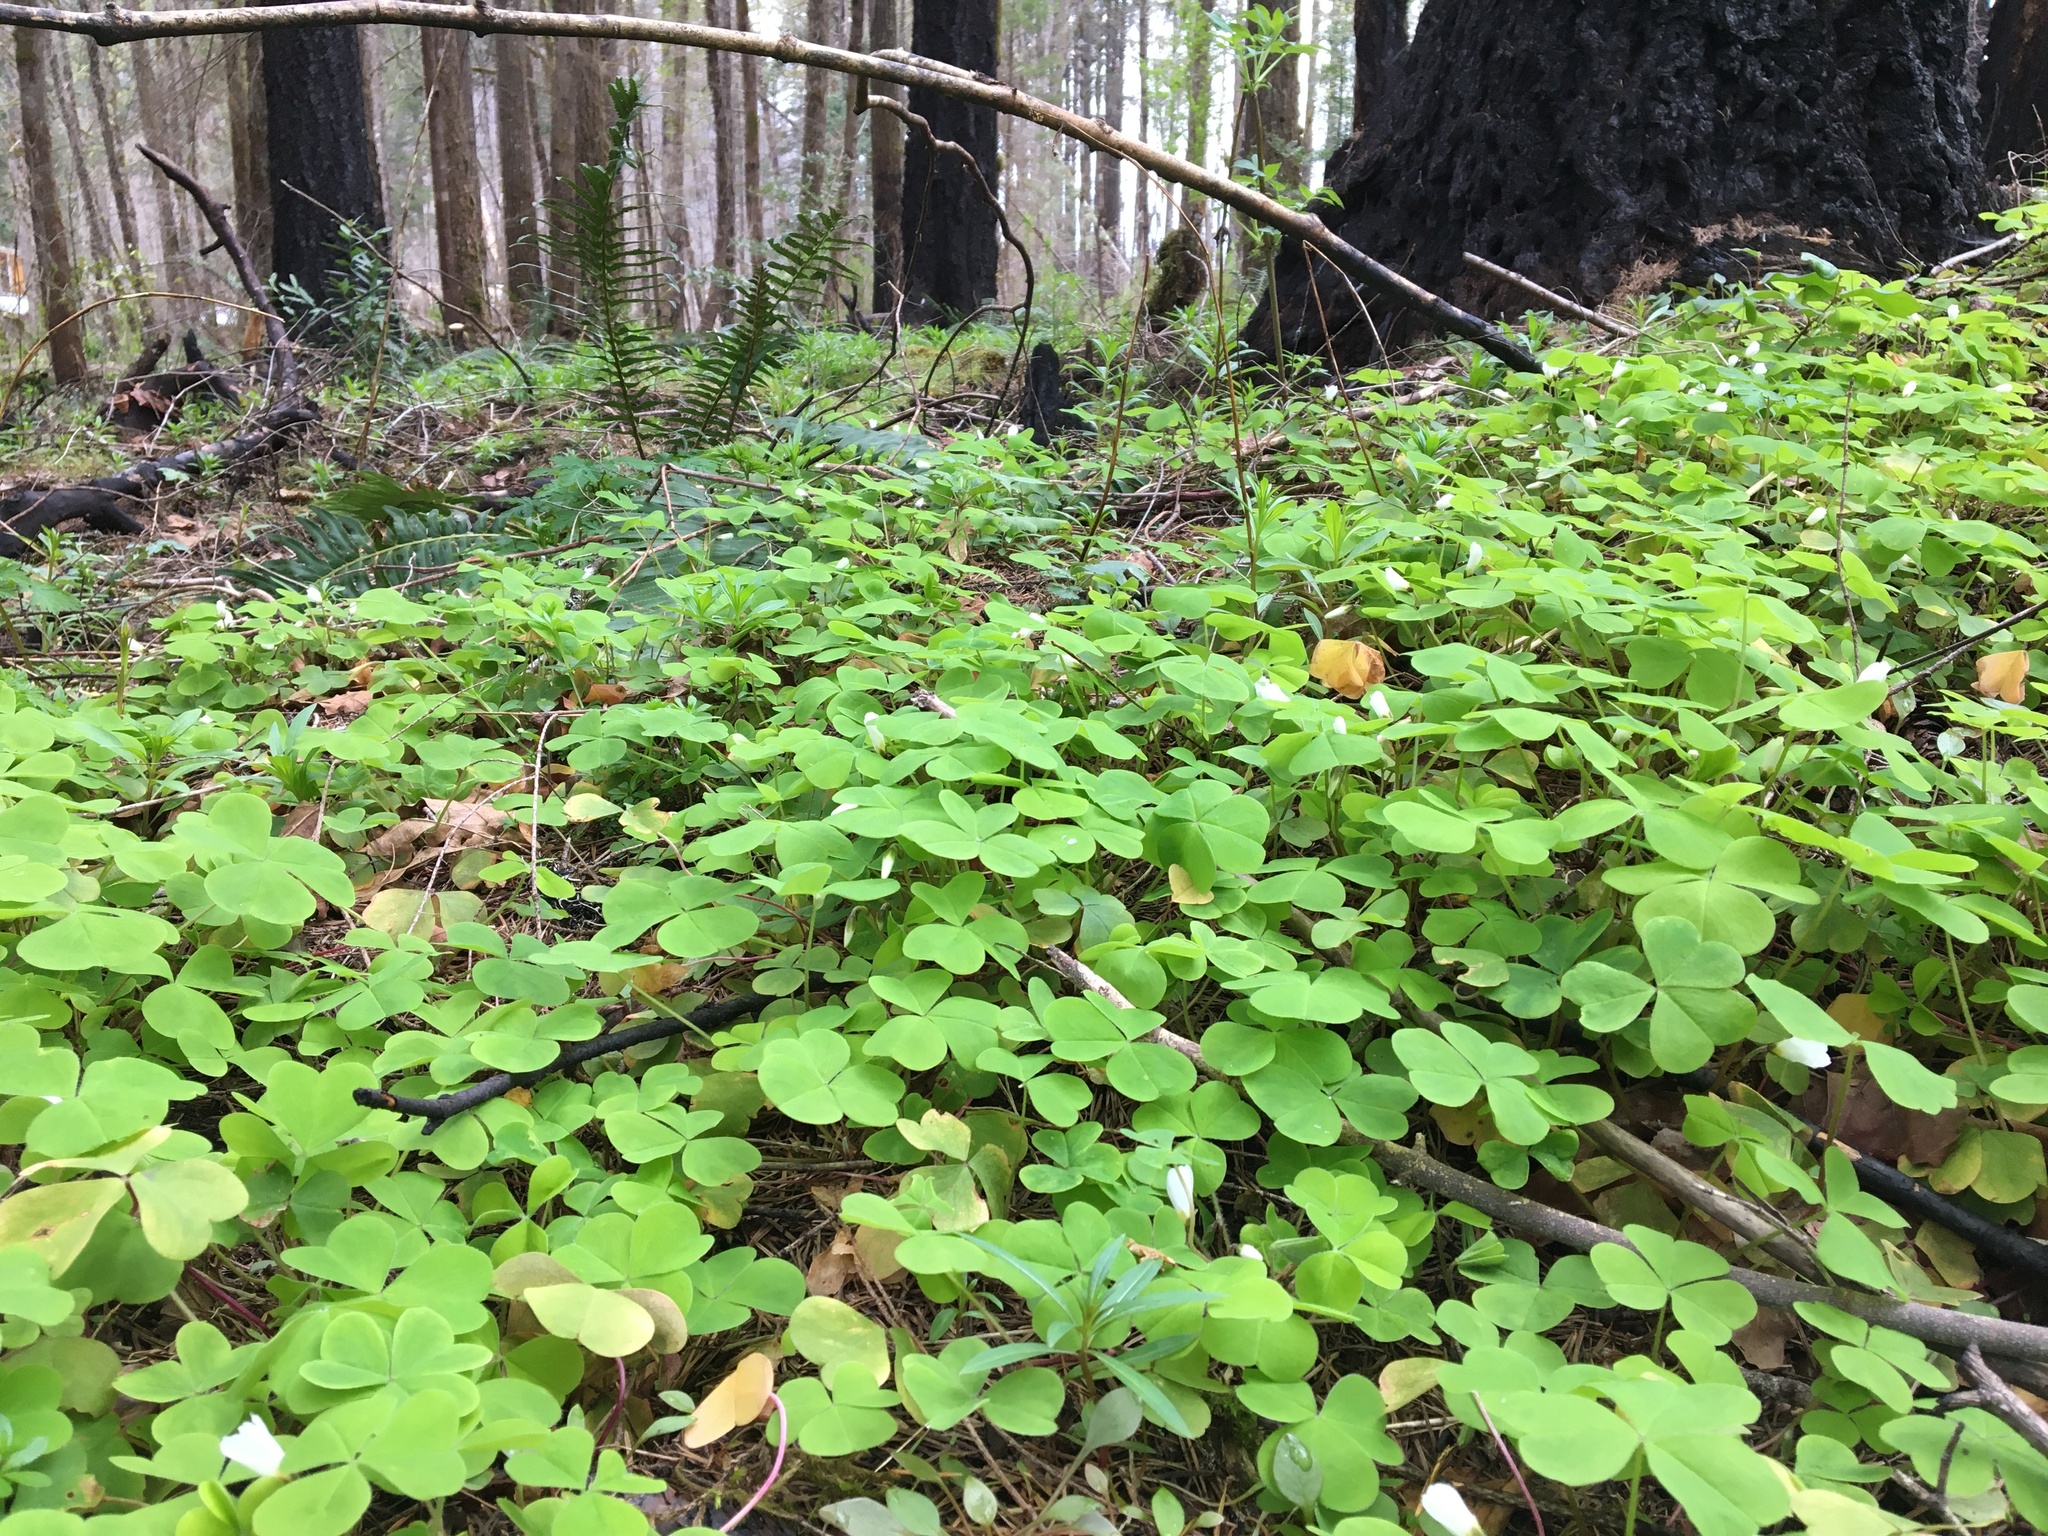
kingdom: Plantae
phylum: Tracheophyta
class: Magnoliopsida
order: Oxalidales
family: Oxalidaceae
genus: Oxalis
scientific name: Oxalis oregana
